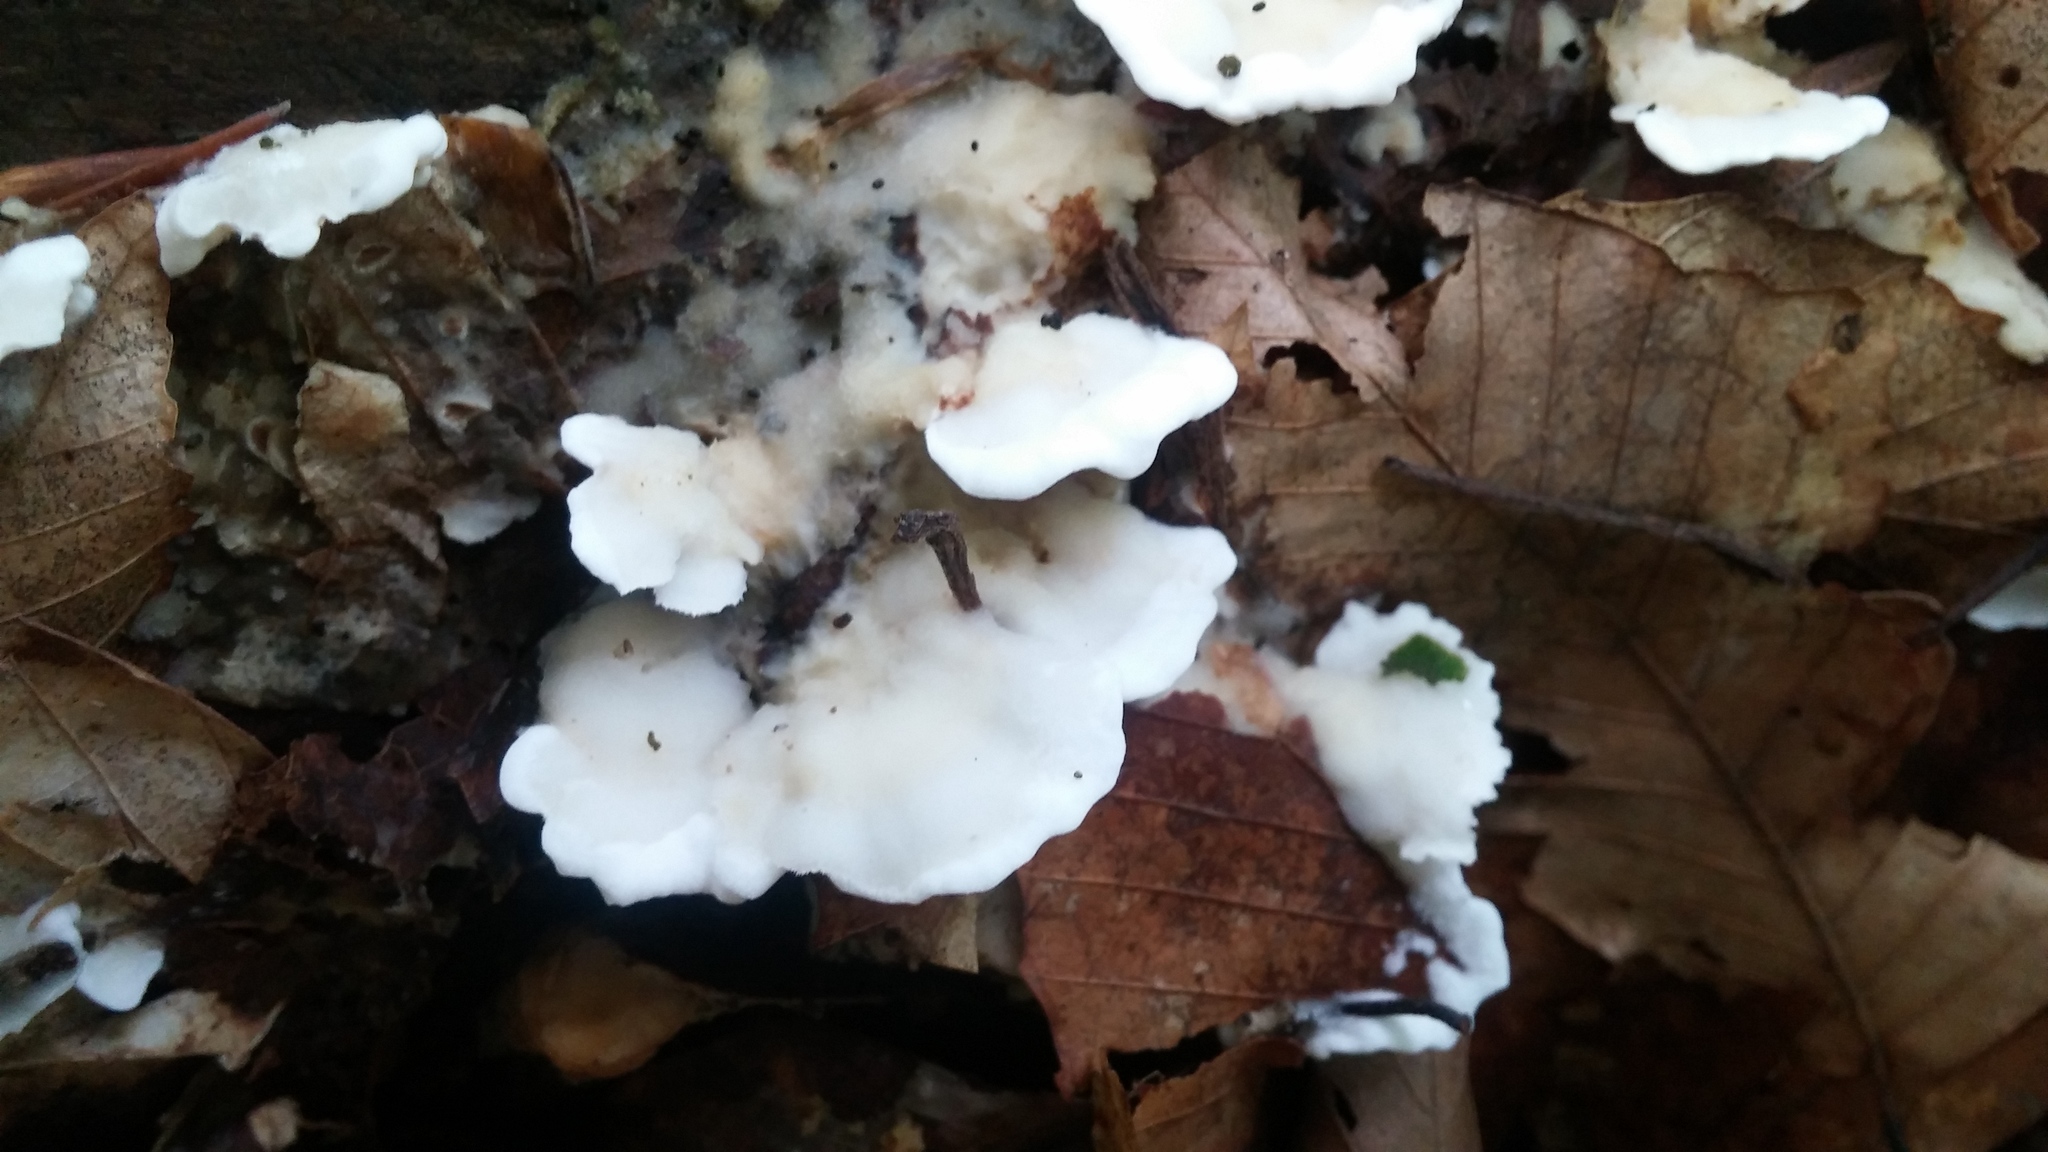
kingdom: Fungi
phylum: Basidiomycota
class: Agaricomycetes
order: Polyporales
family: Irpicaceae
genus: Vitreoporus
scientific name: Vitreoporus dichrous
